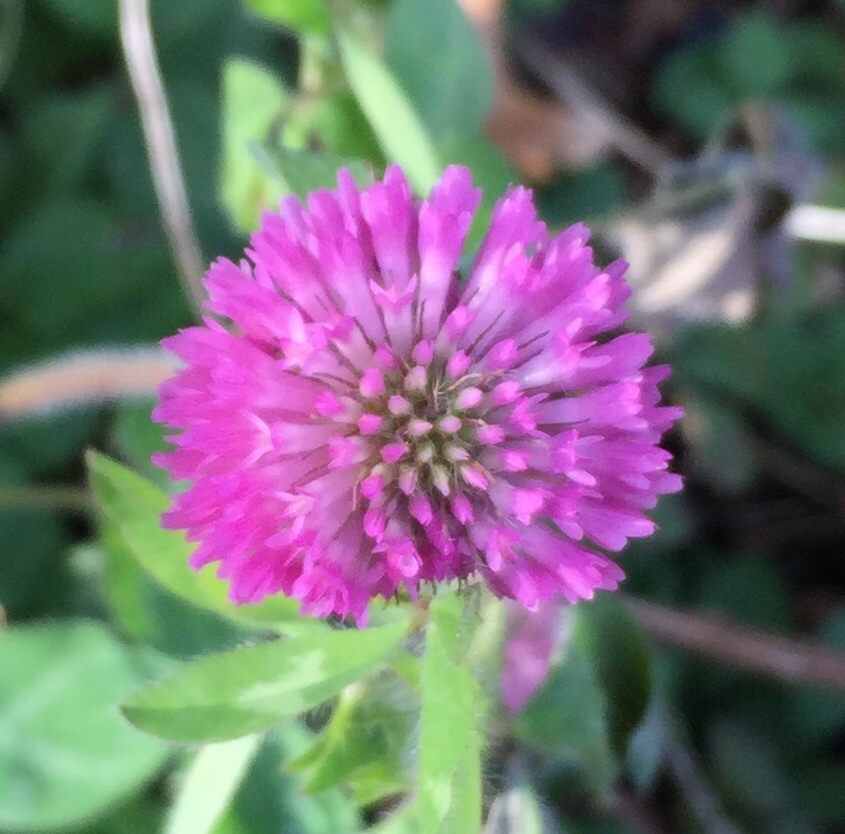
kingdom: Plantae
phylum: Tracheophyta
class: Magnoliopsida
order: Fabales
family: Fabaceae
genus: Trifolium
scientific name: Trifolium pratense
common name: Red clover
